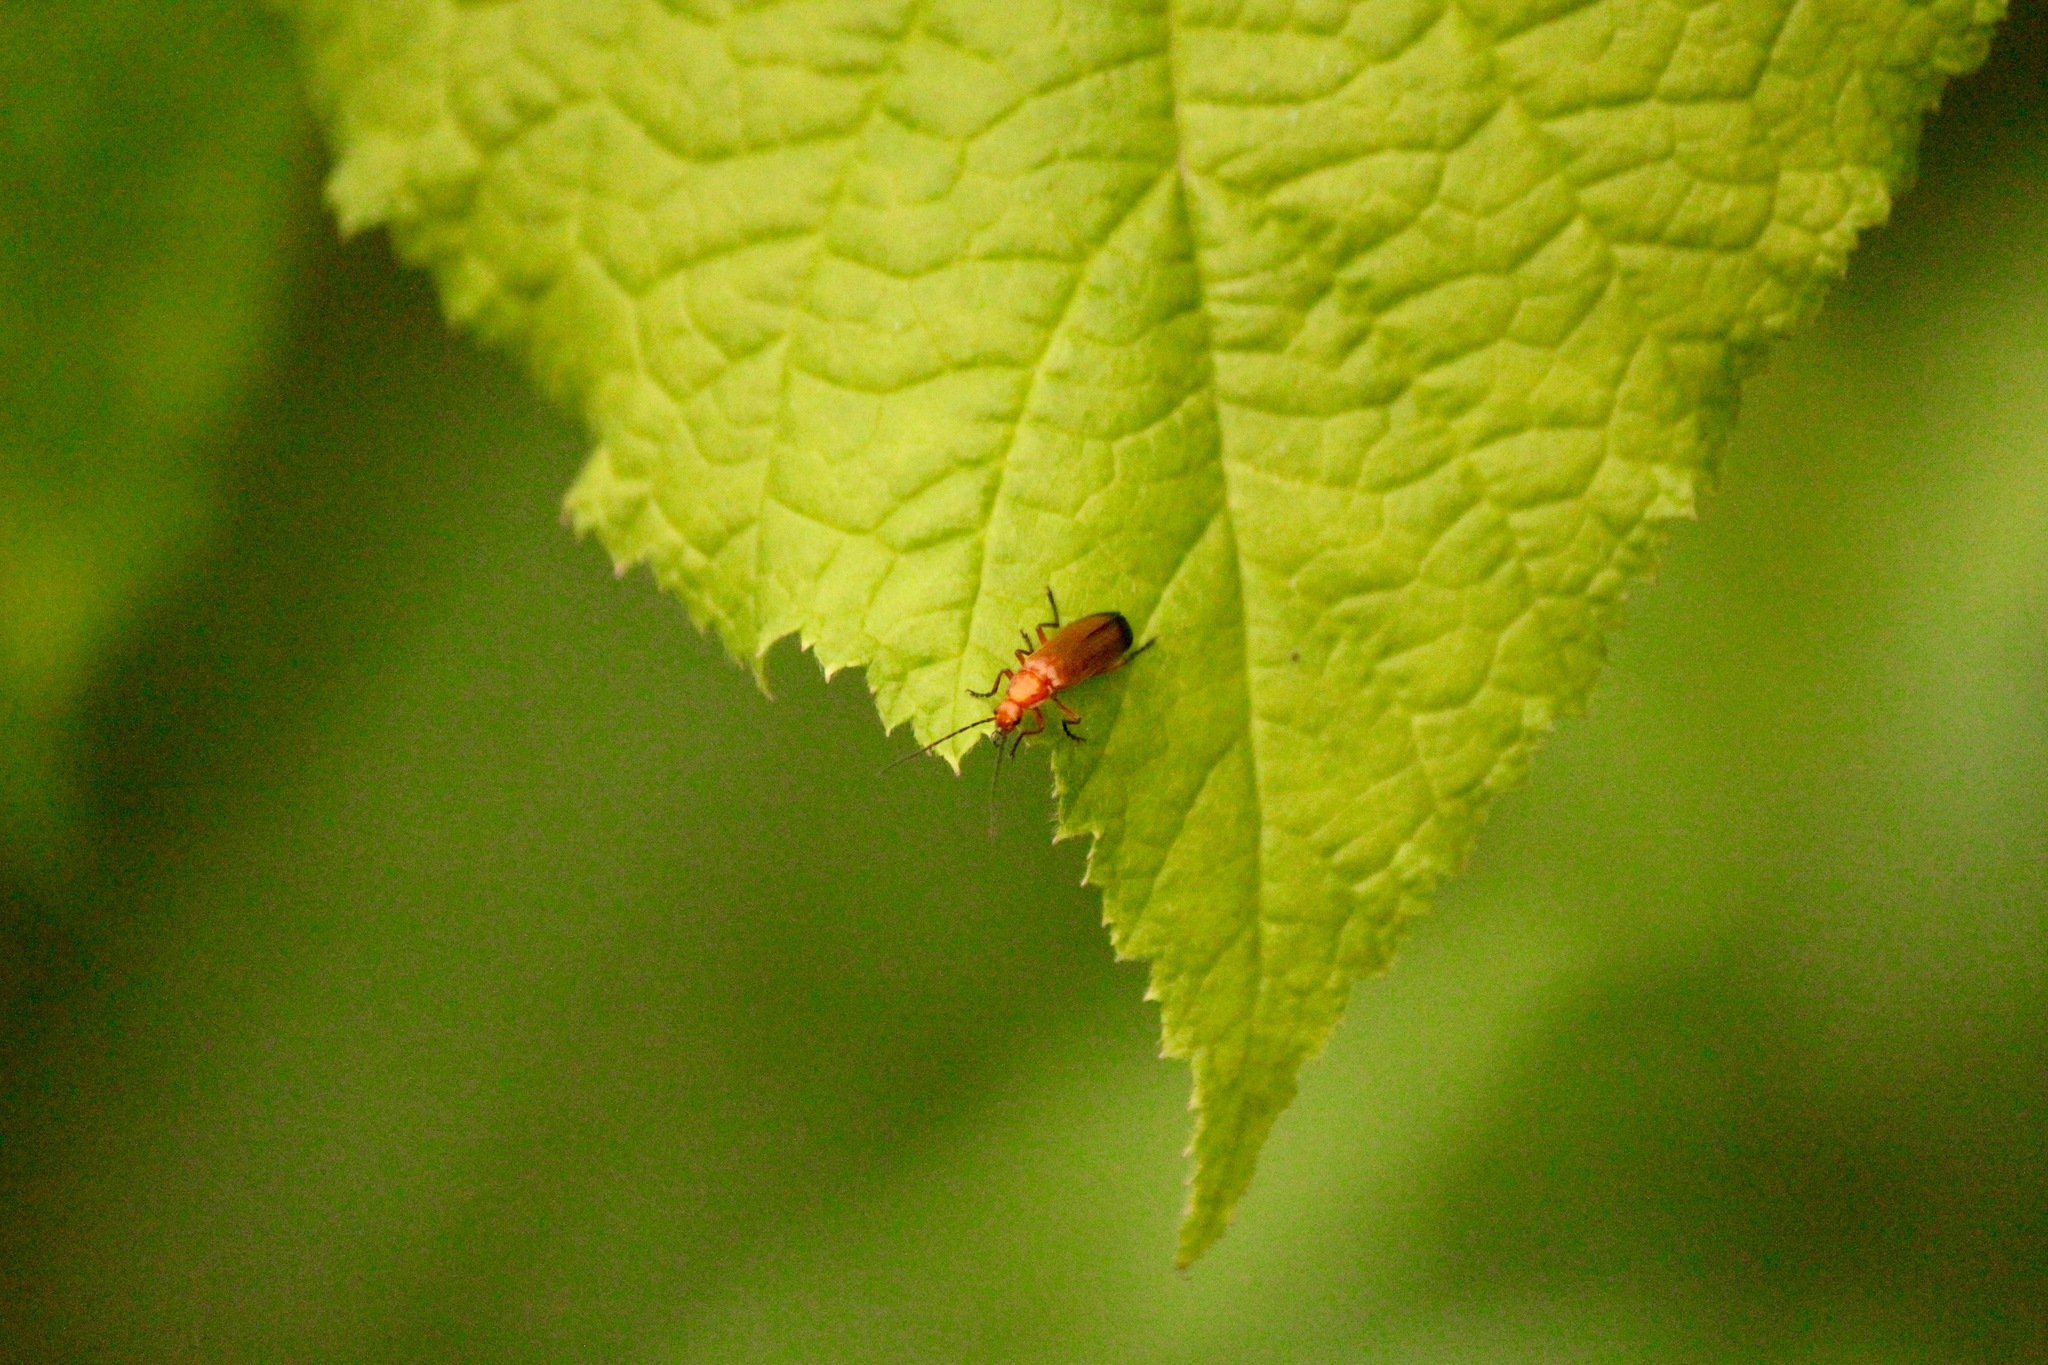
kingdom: Animalia
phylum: Arthropoda
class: Insecta
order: Coleoptera
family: Cantharidae
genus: Rhagonycha
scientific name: Rhagonycha fulva
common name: Common red soldier beetle
